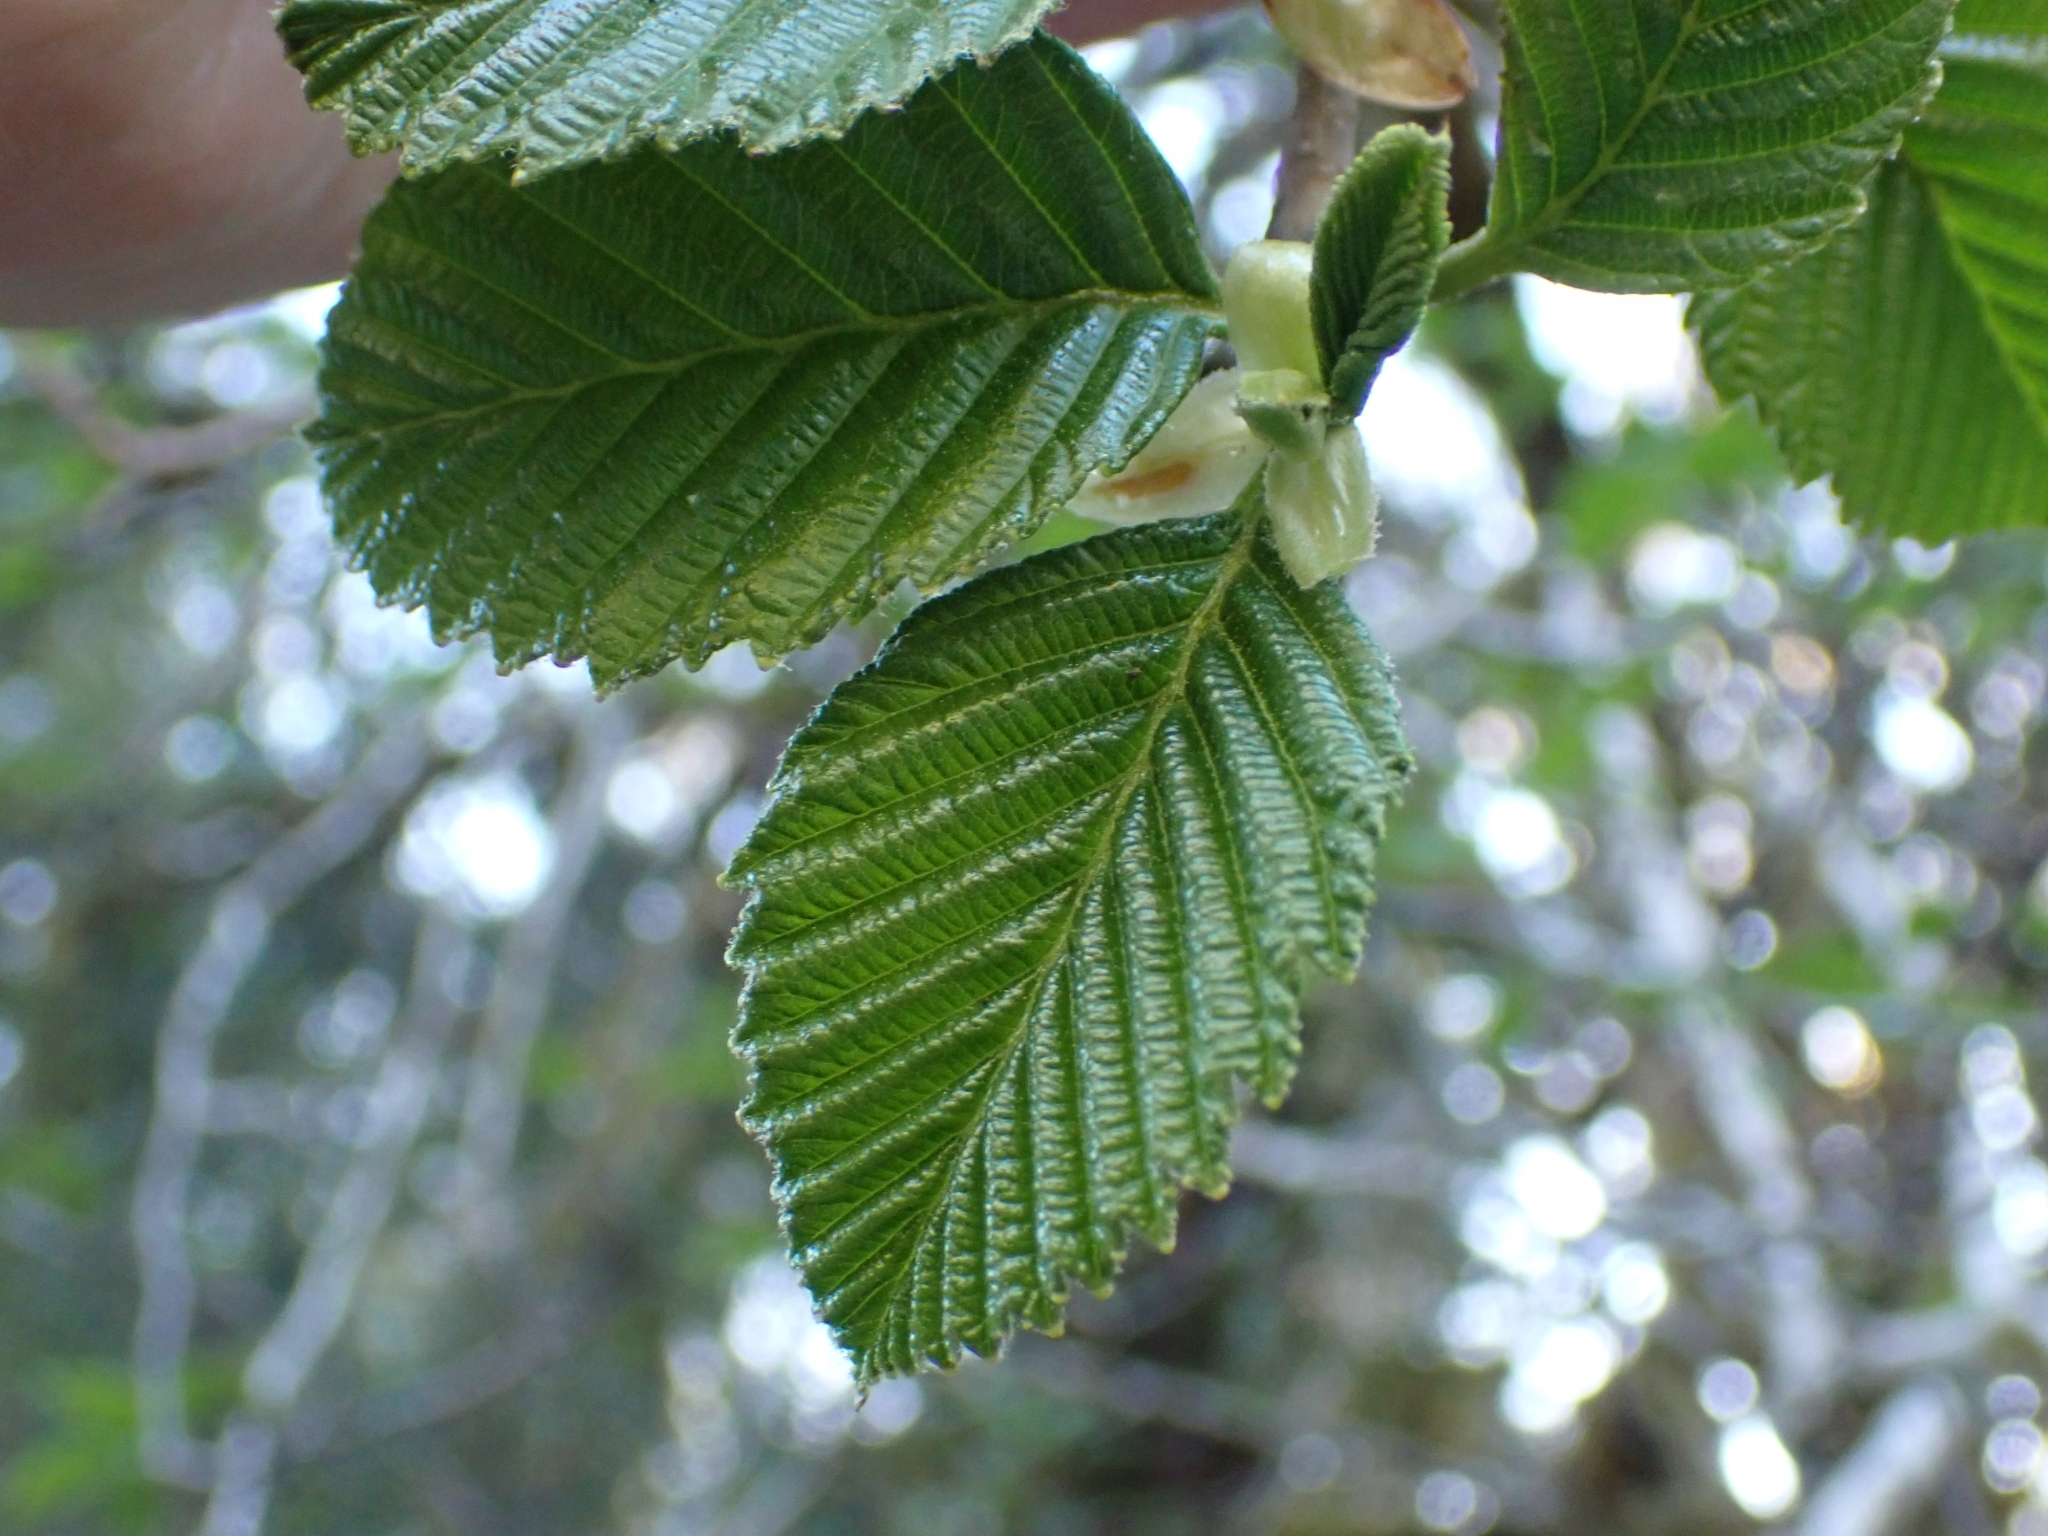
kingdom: Plantae
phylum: Tracheophyta
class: Magnoliopsida
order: Fagales
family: Betulaceae
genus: Alnus
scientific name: Alnus rubra
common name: Red alder
